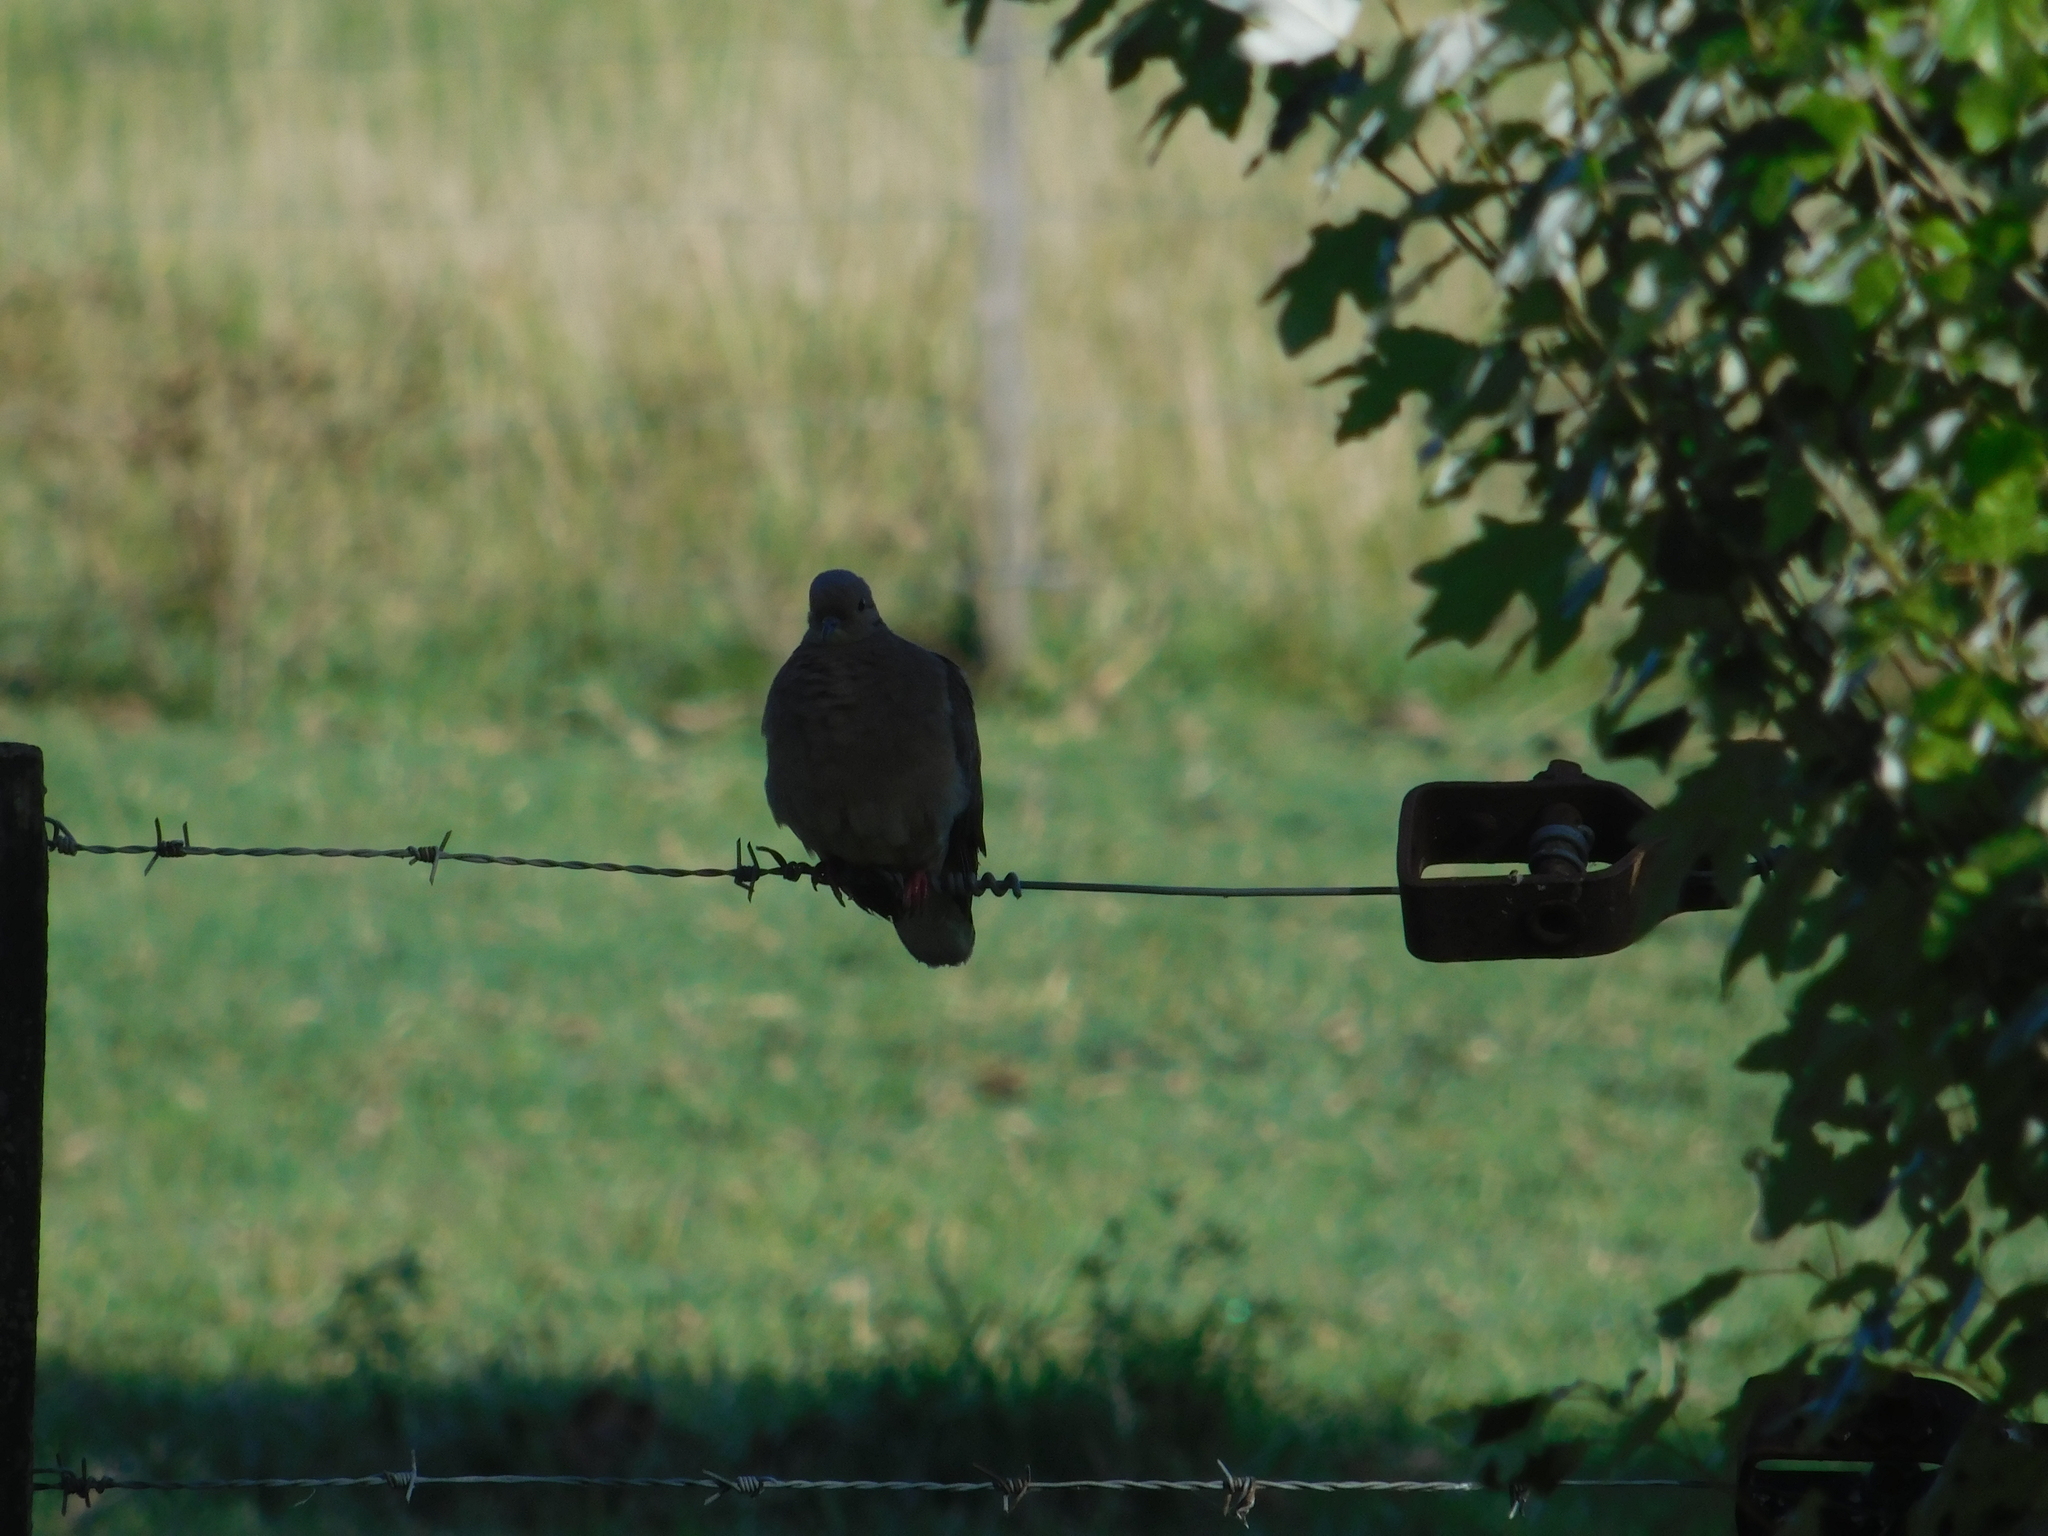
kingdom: Animalia
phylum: Chordata
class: Aves
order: Columbiformes
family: Columbidae
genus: Zenaida
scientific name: Zenaida auriculata
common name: Eared dove
